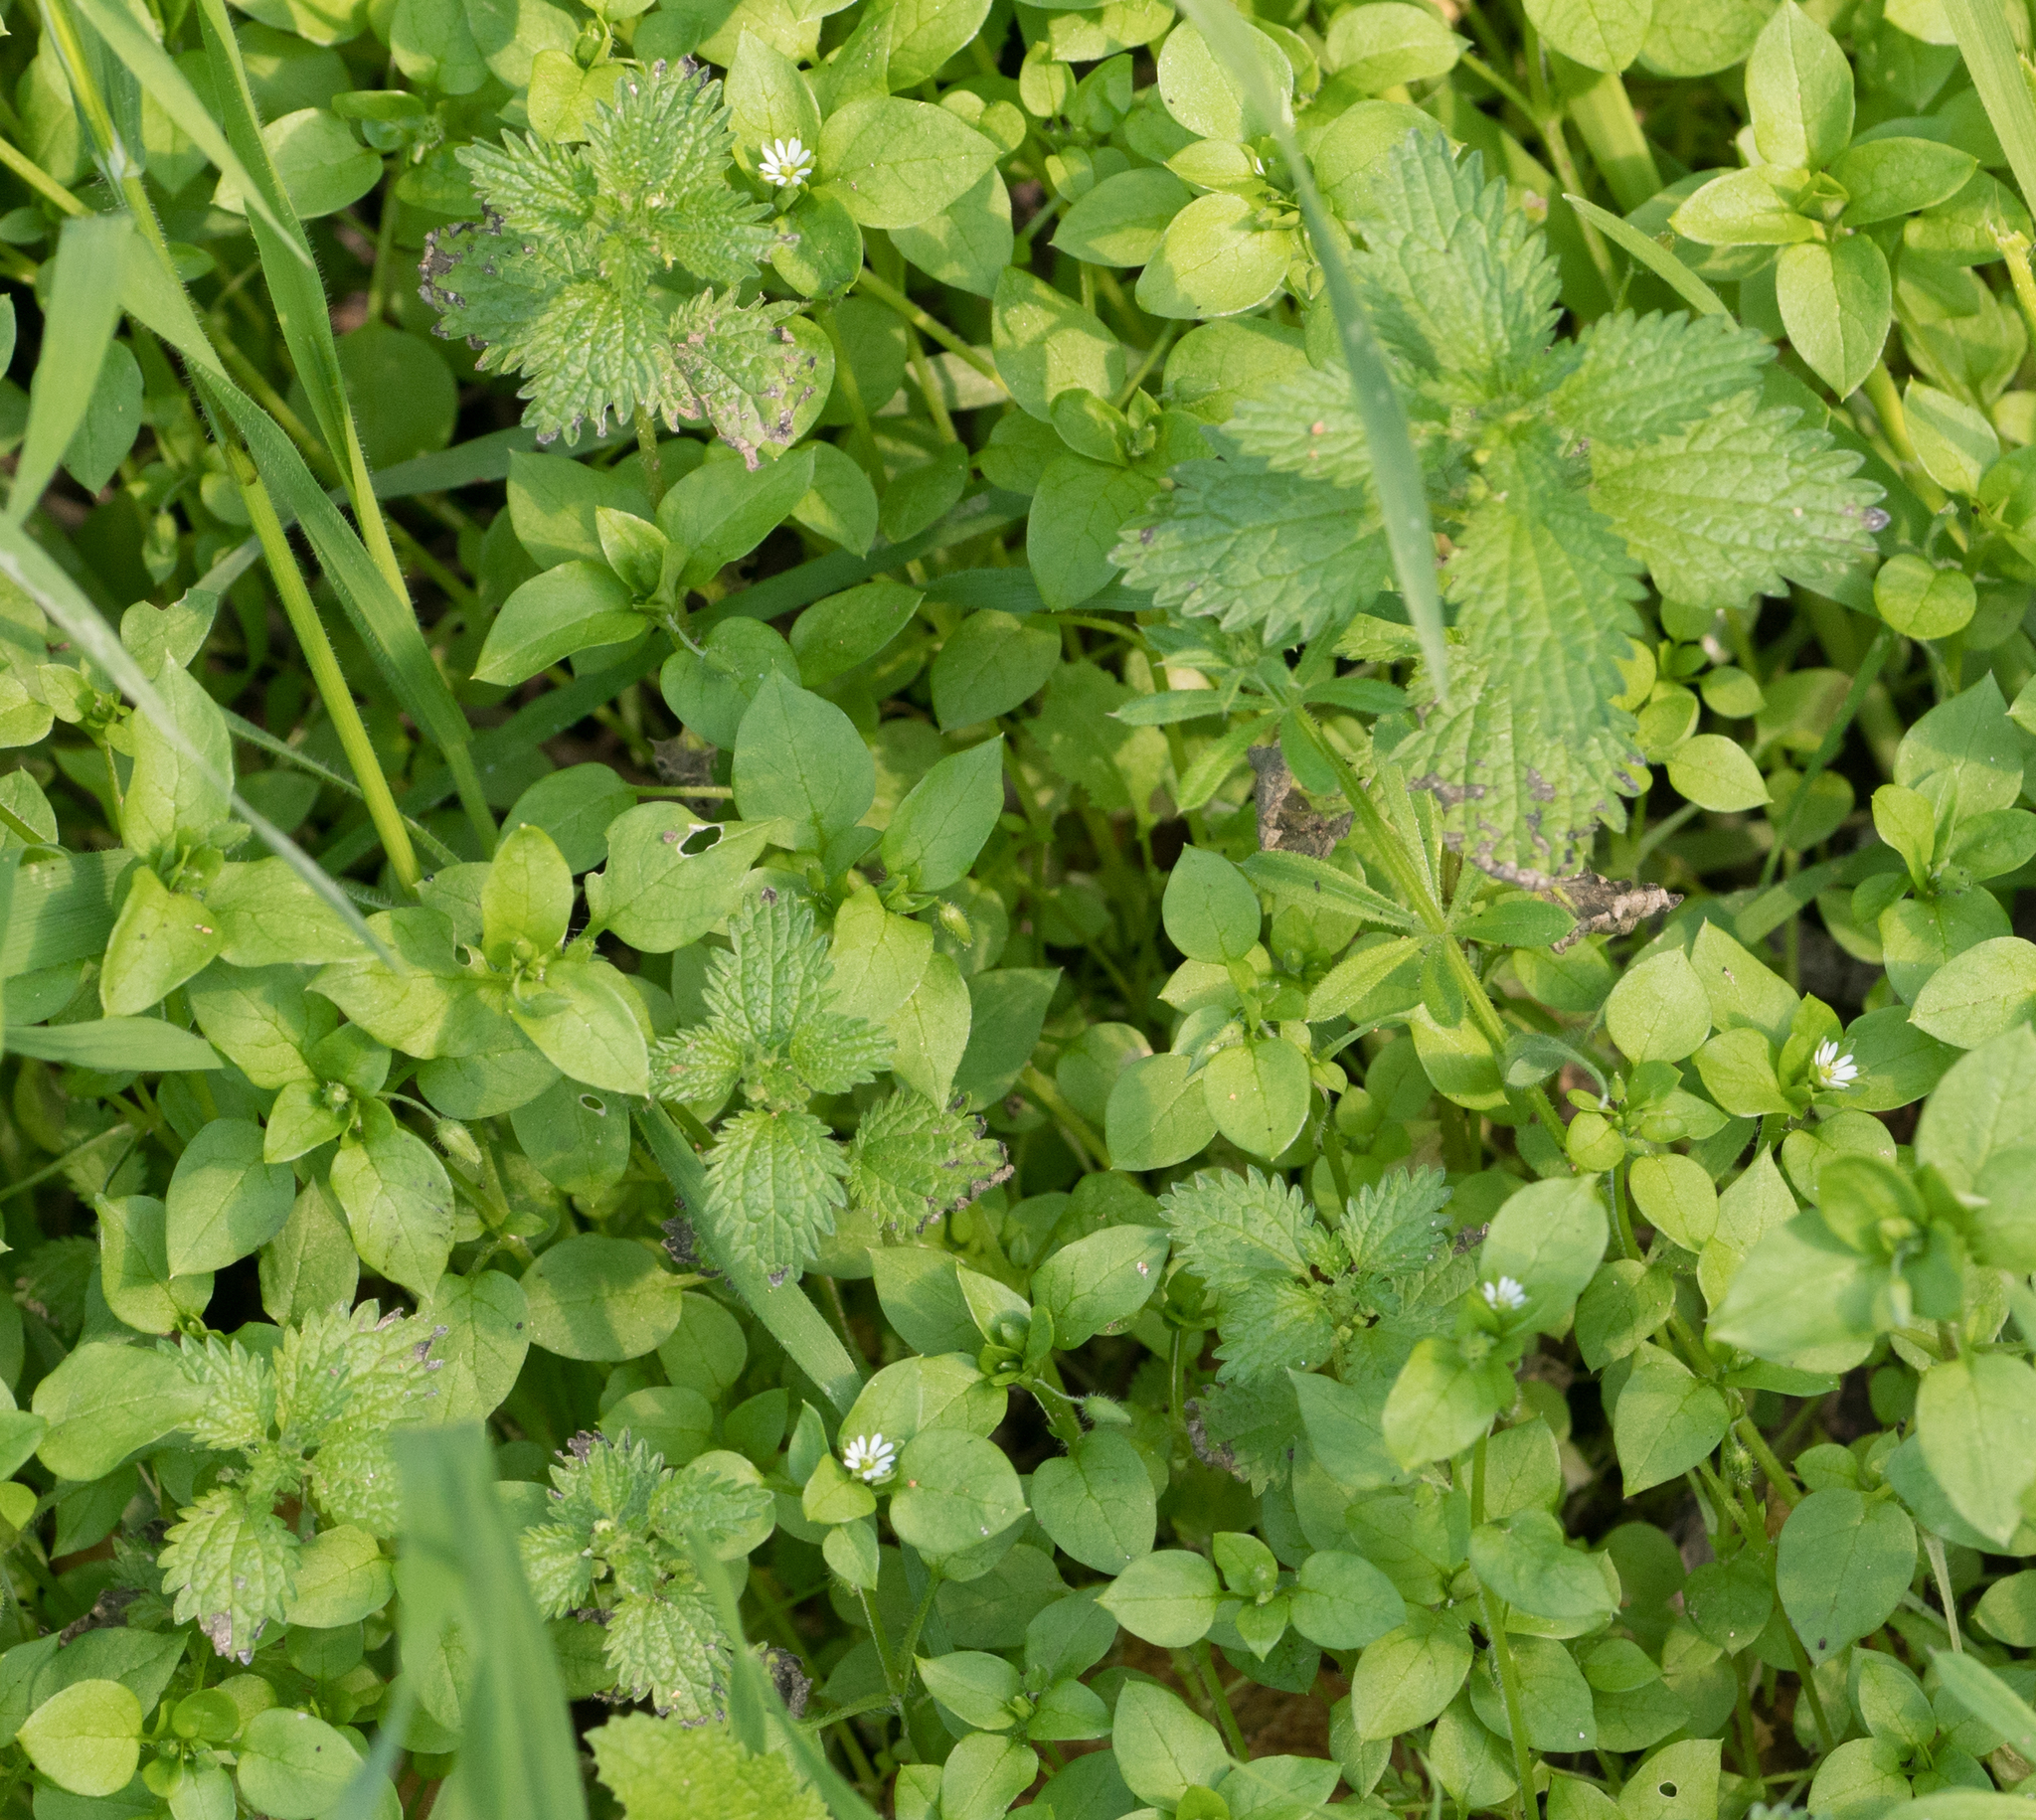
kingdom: Plantae
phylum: Tracheophyta
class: Magnoliopsida
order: Rosales
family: Urticaceae
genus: Urtica
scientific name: Urtica urens
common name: Dwarf nettle
